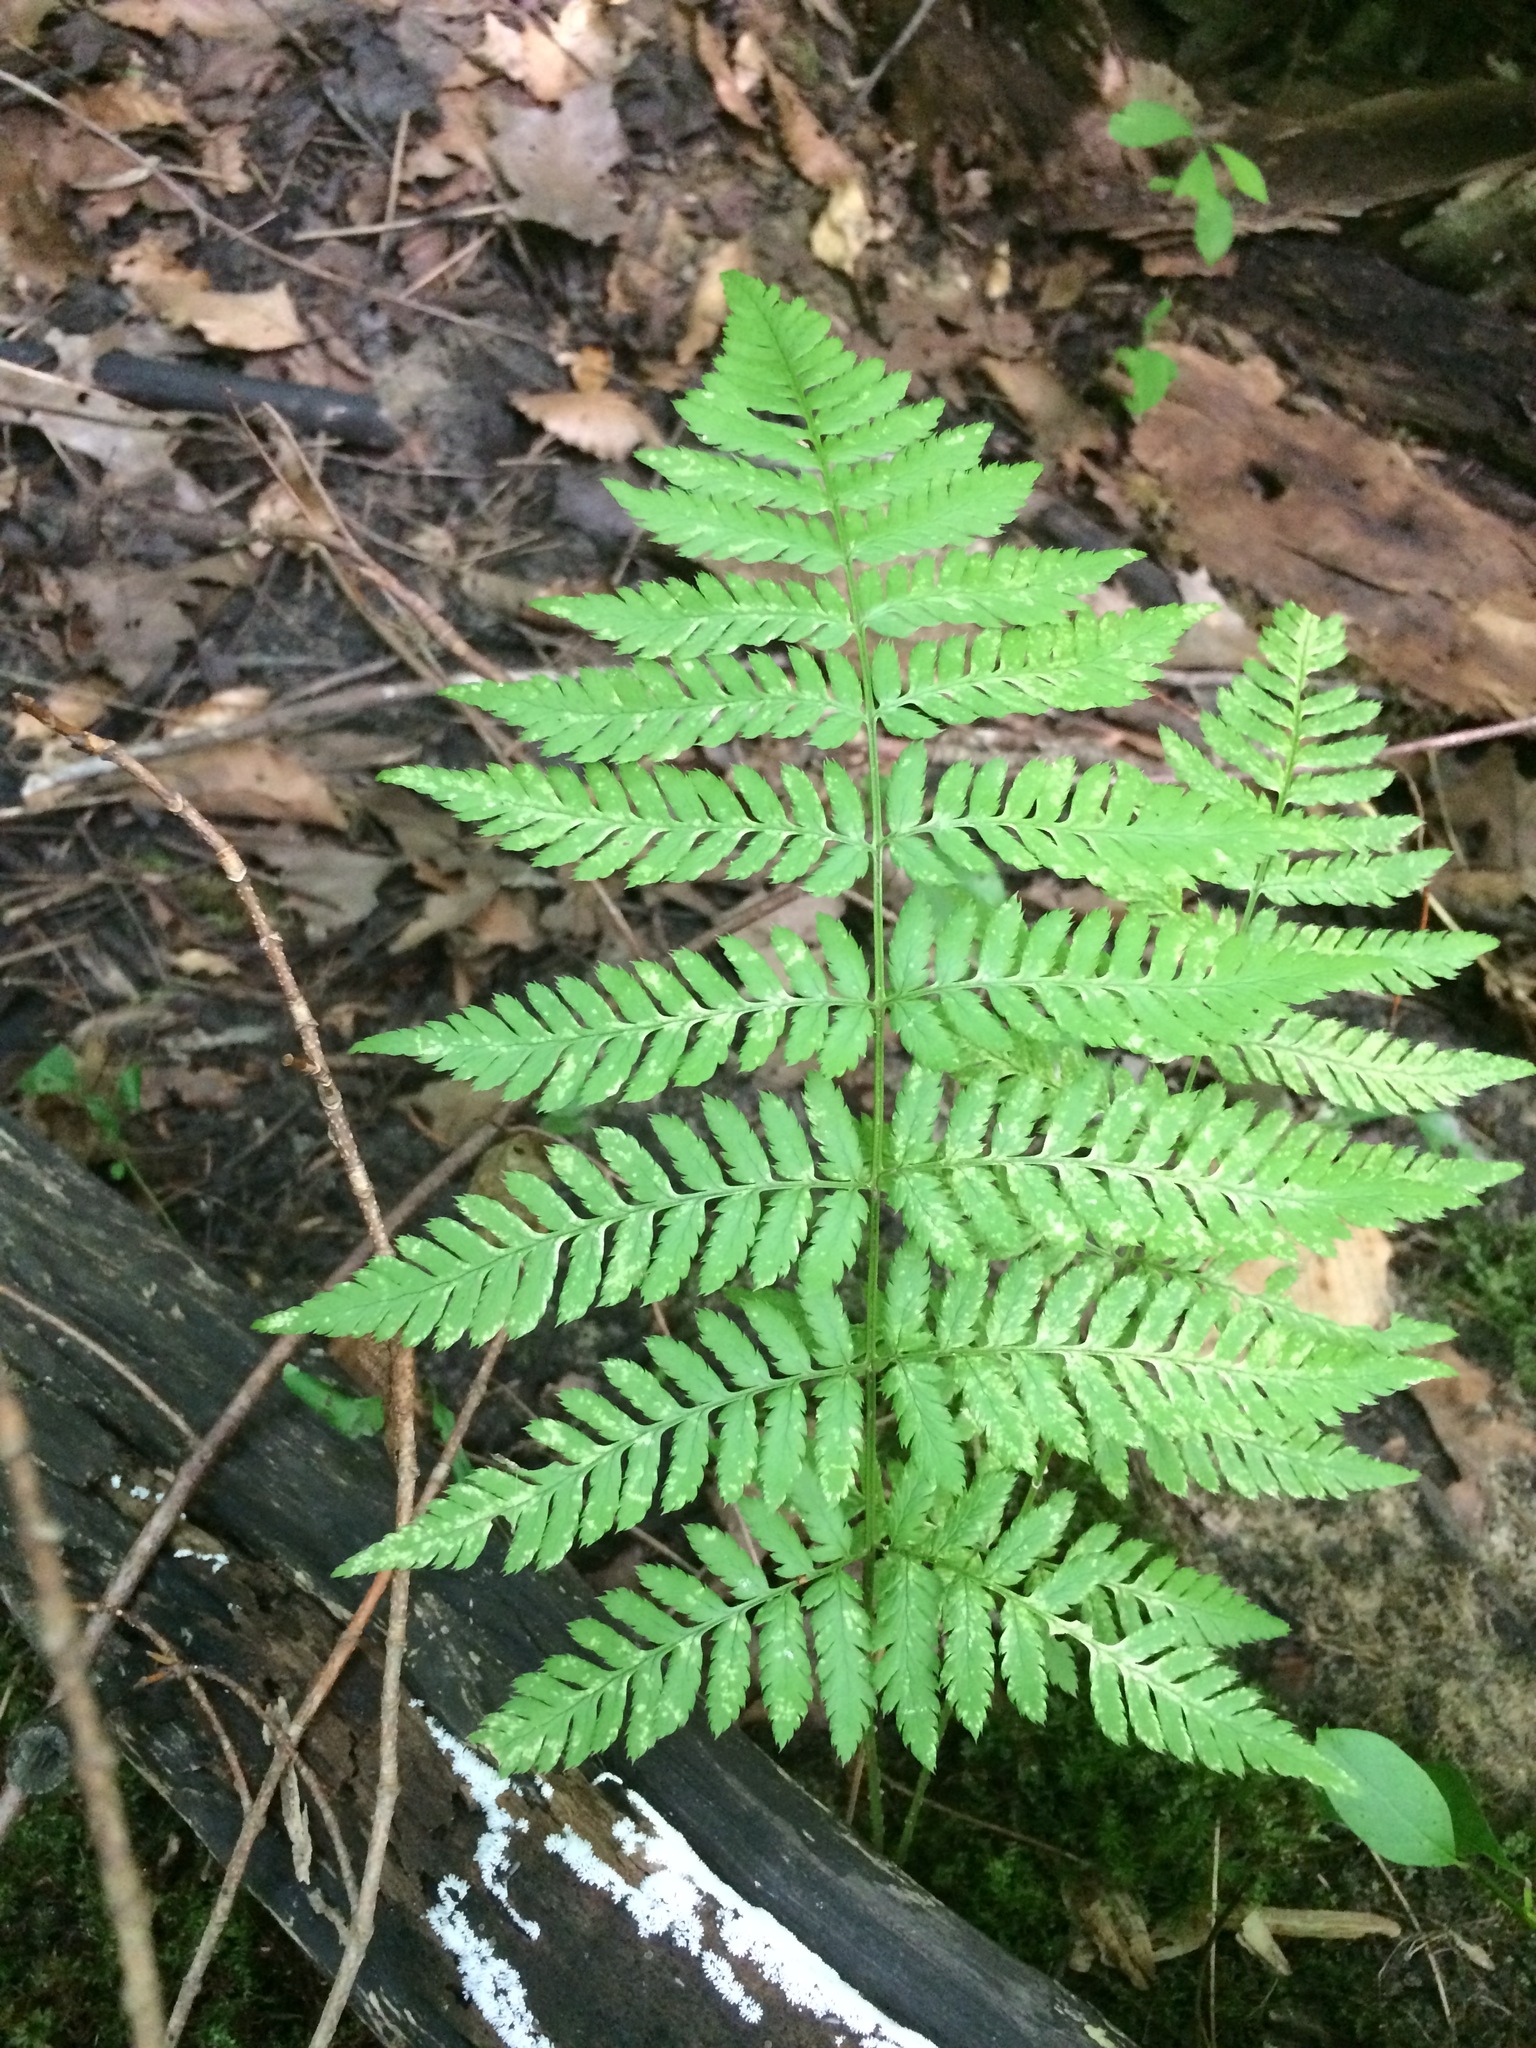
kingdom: Plantae
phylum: Tracheophyta
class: Polypodiopsida
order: Polypodiales
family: Dryopteridaceae
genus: Dryopteris
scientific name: Dryopteris carthusiana
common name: Narrow buckler-fern
